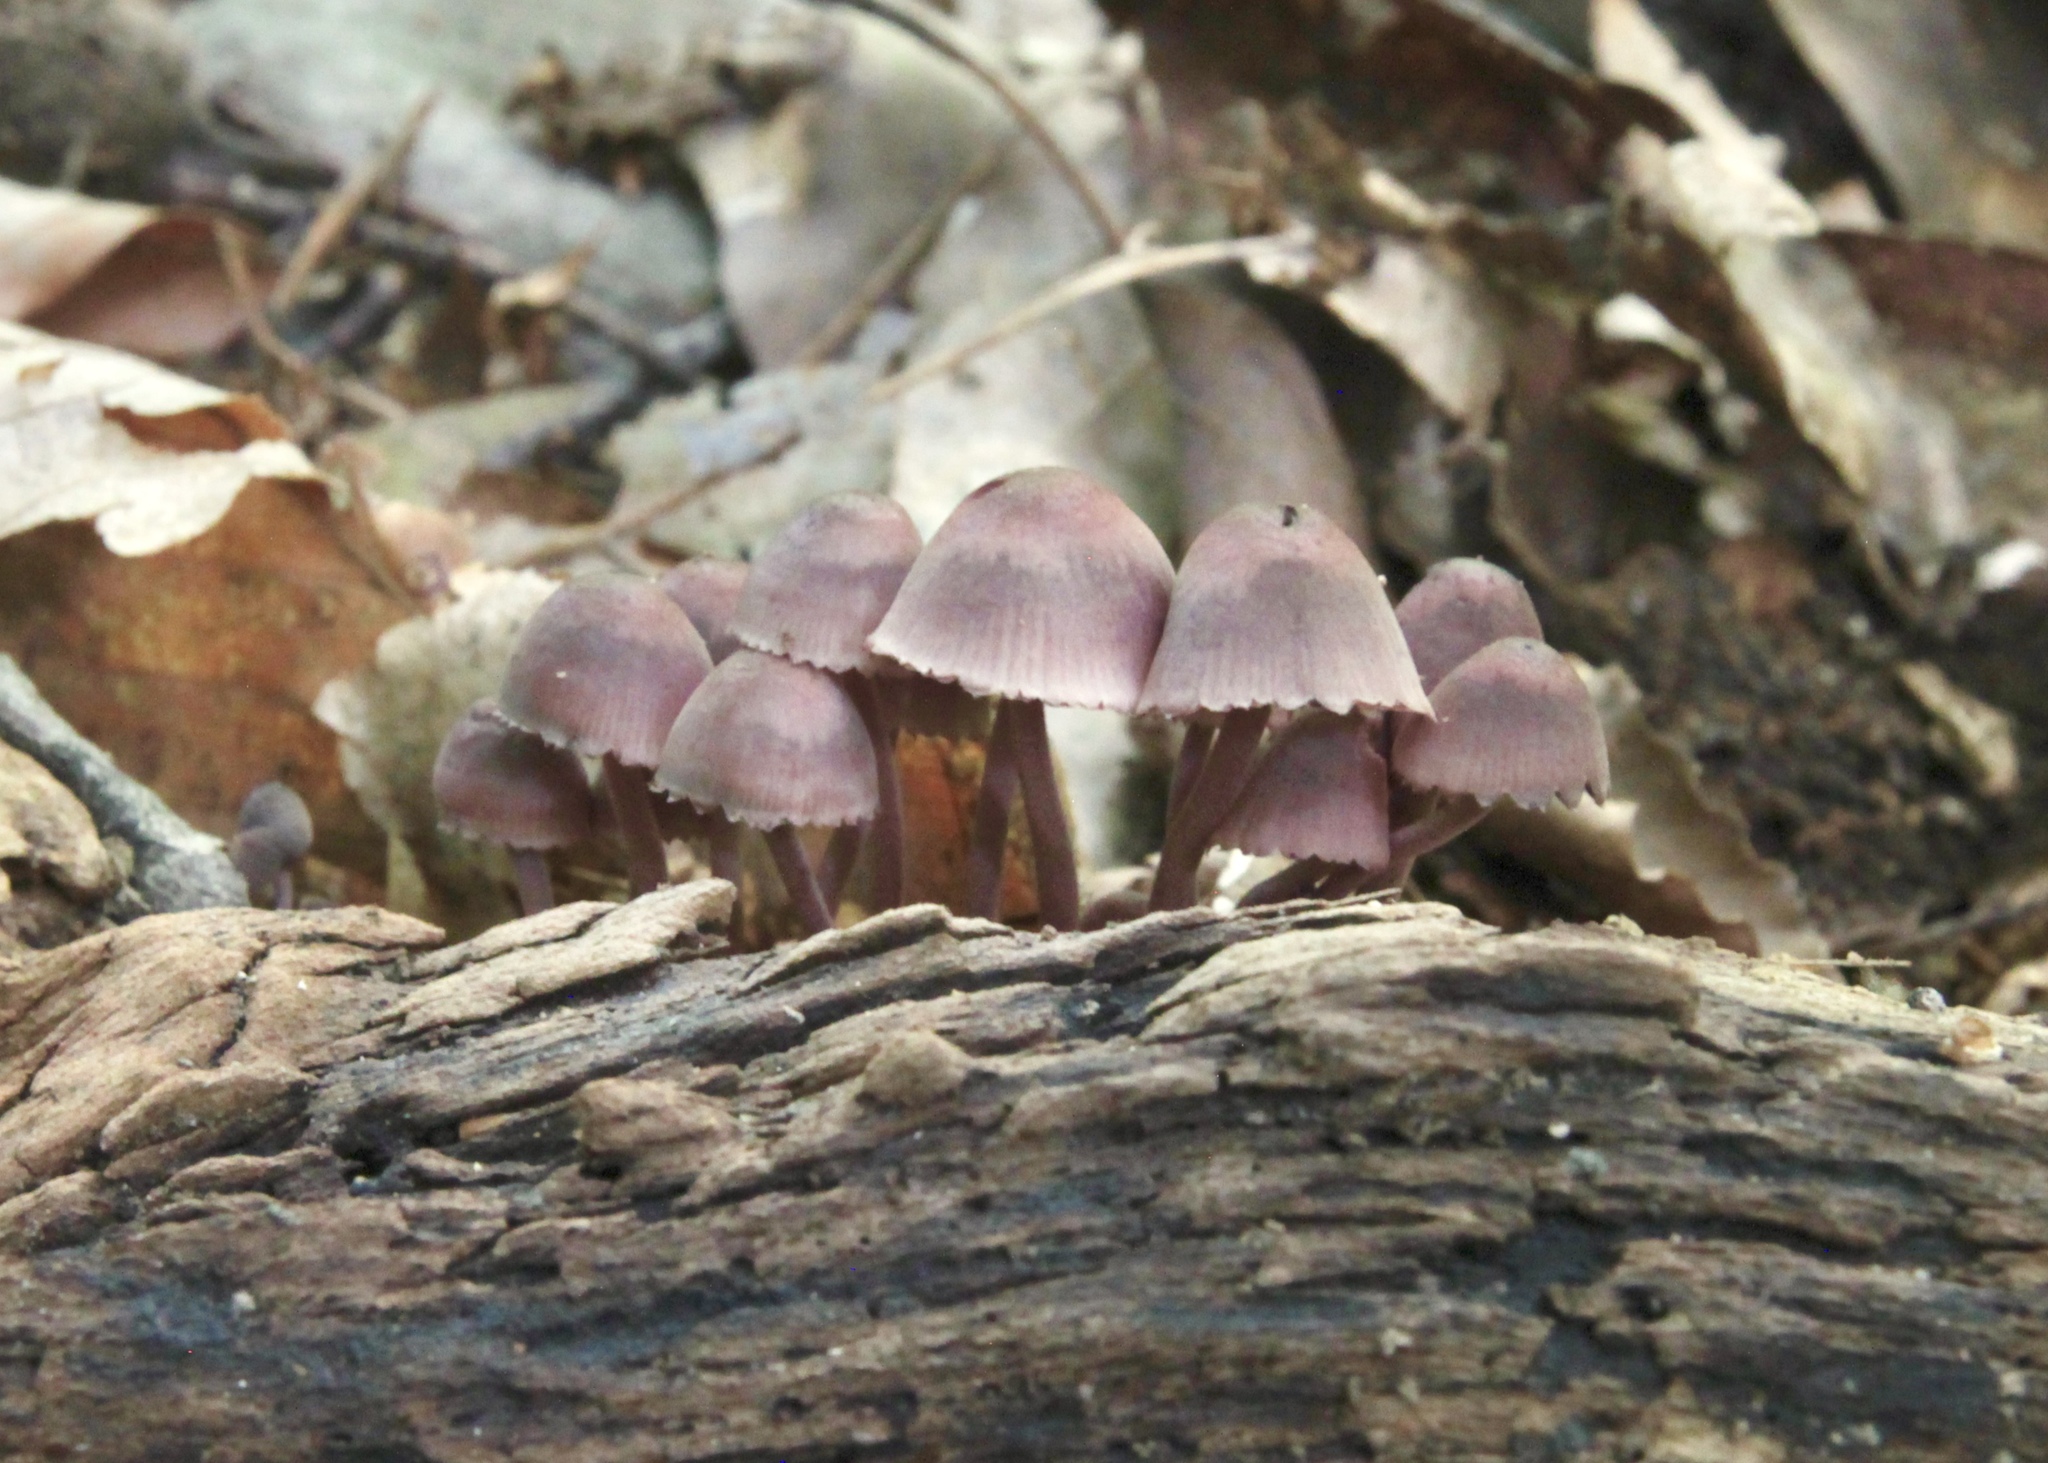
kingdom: Fungi
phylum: Basidiomycota
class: Agaricomycetes
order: Agaricales
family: Mycenaceae
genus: Mycena
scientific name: Mycena haematopus
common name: Burgundydrop bonnet
